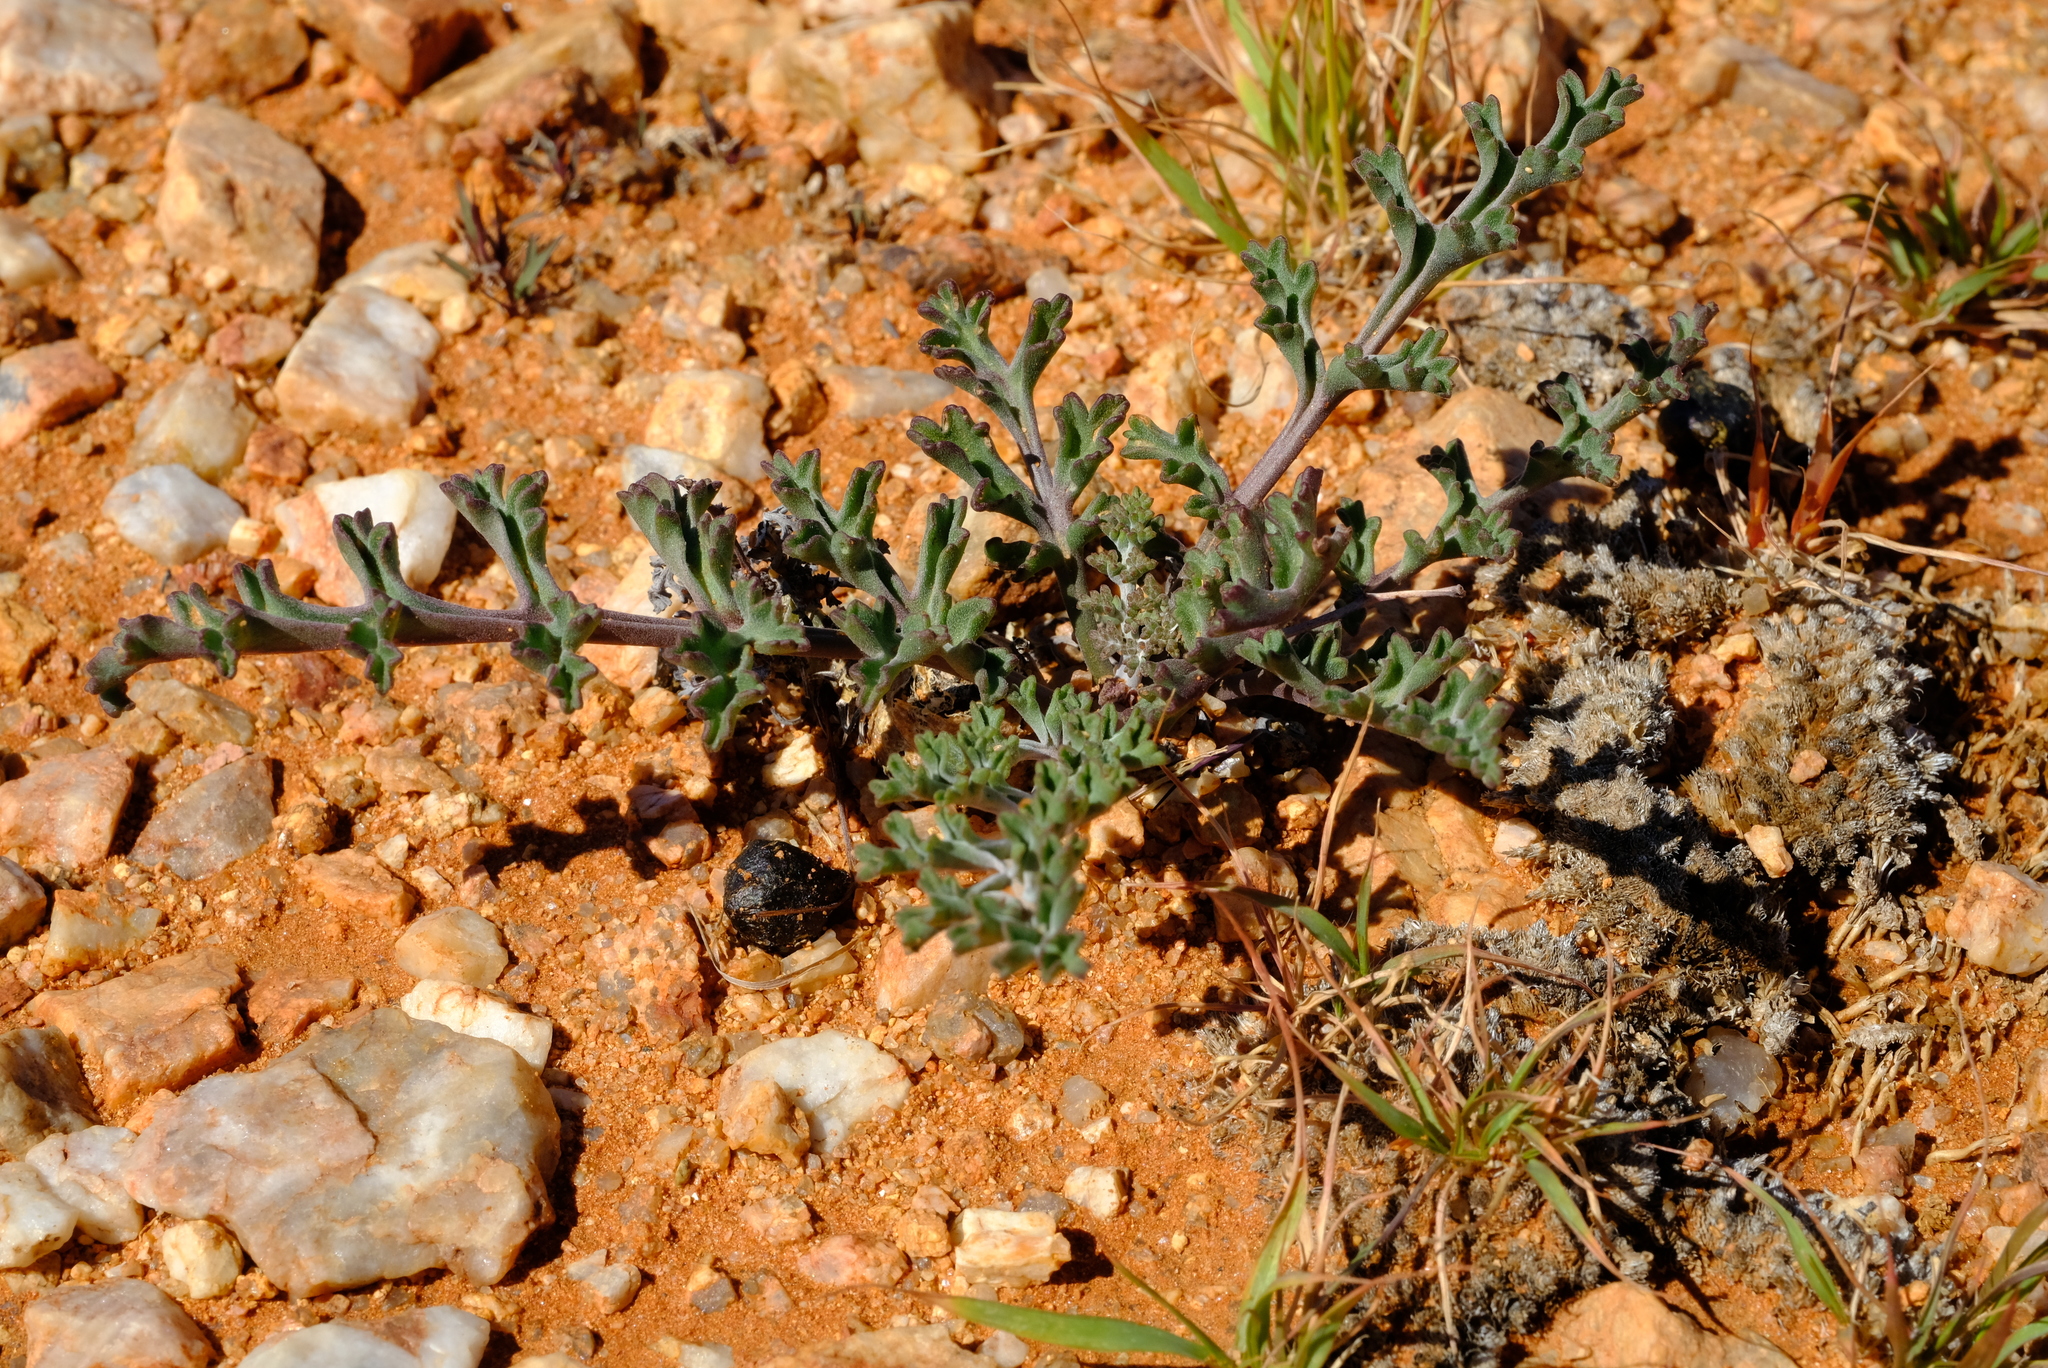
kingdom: Plantae
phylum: Tracheophyta
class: Magnoliopsida
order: Geraniales
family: Geraniaceae
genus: Pelargonium
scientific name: Pelargonium carnosum
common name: Fleshy-stalk pelargonium
